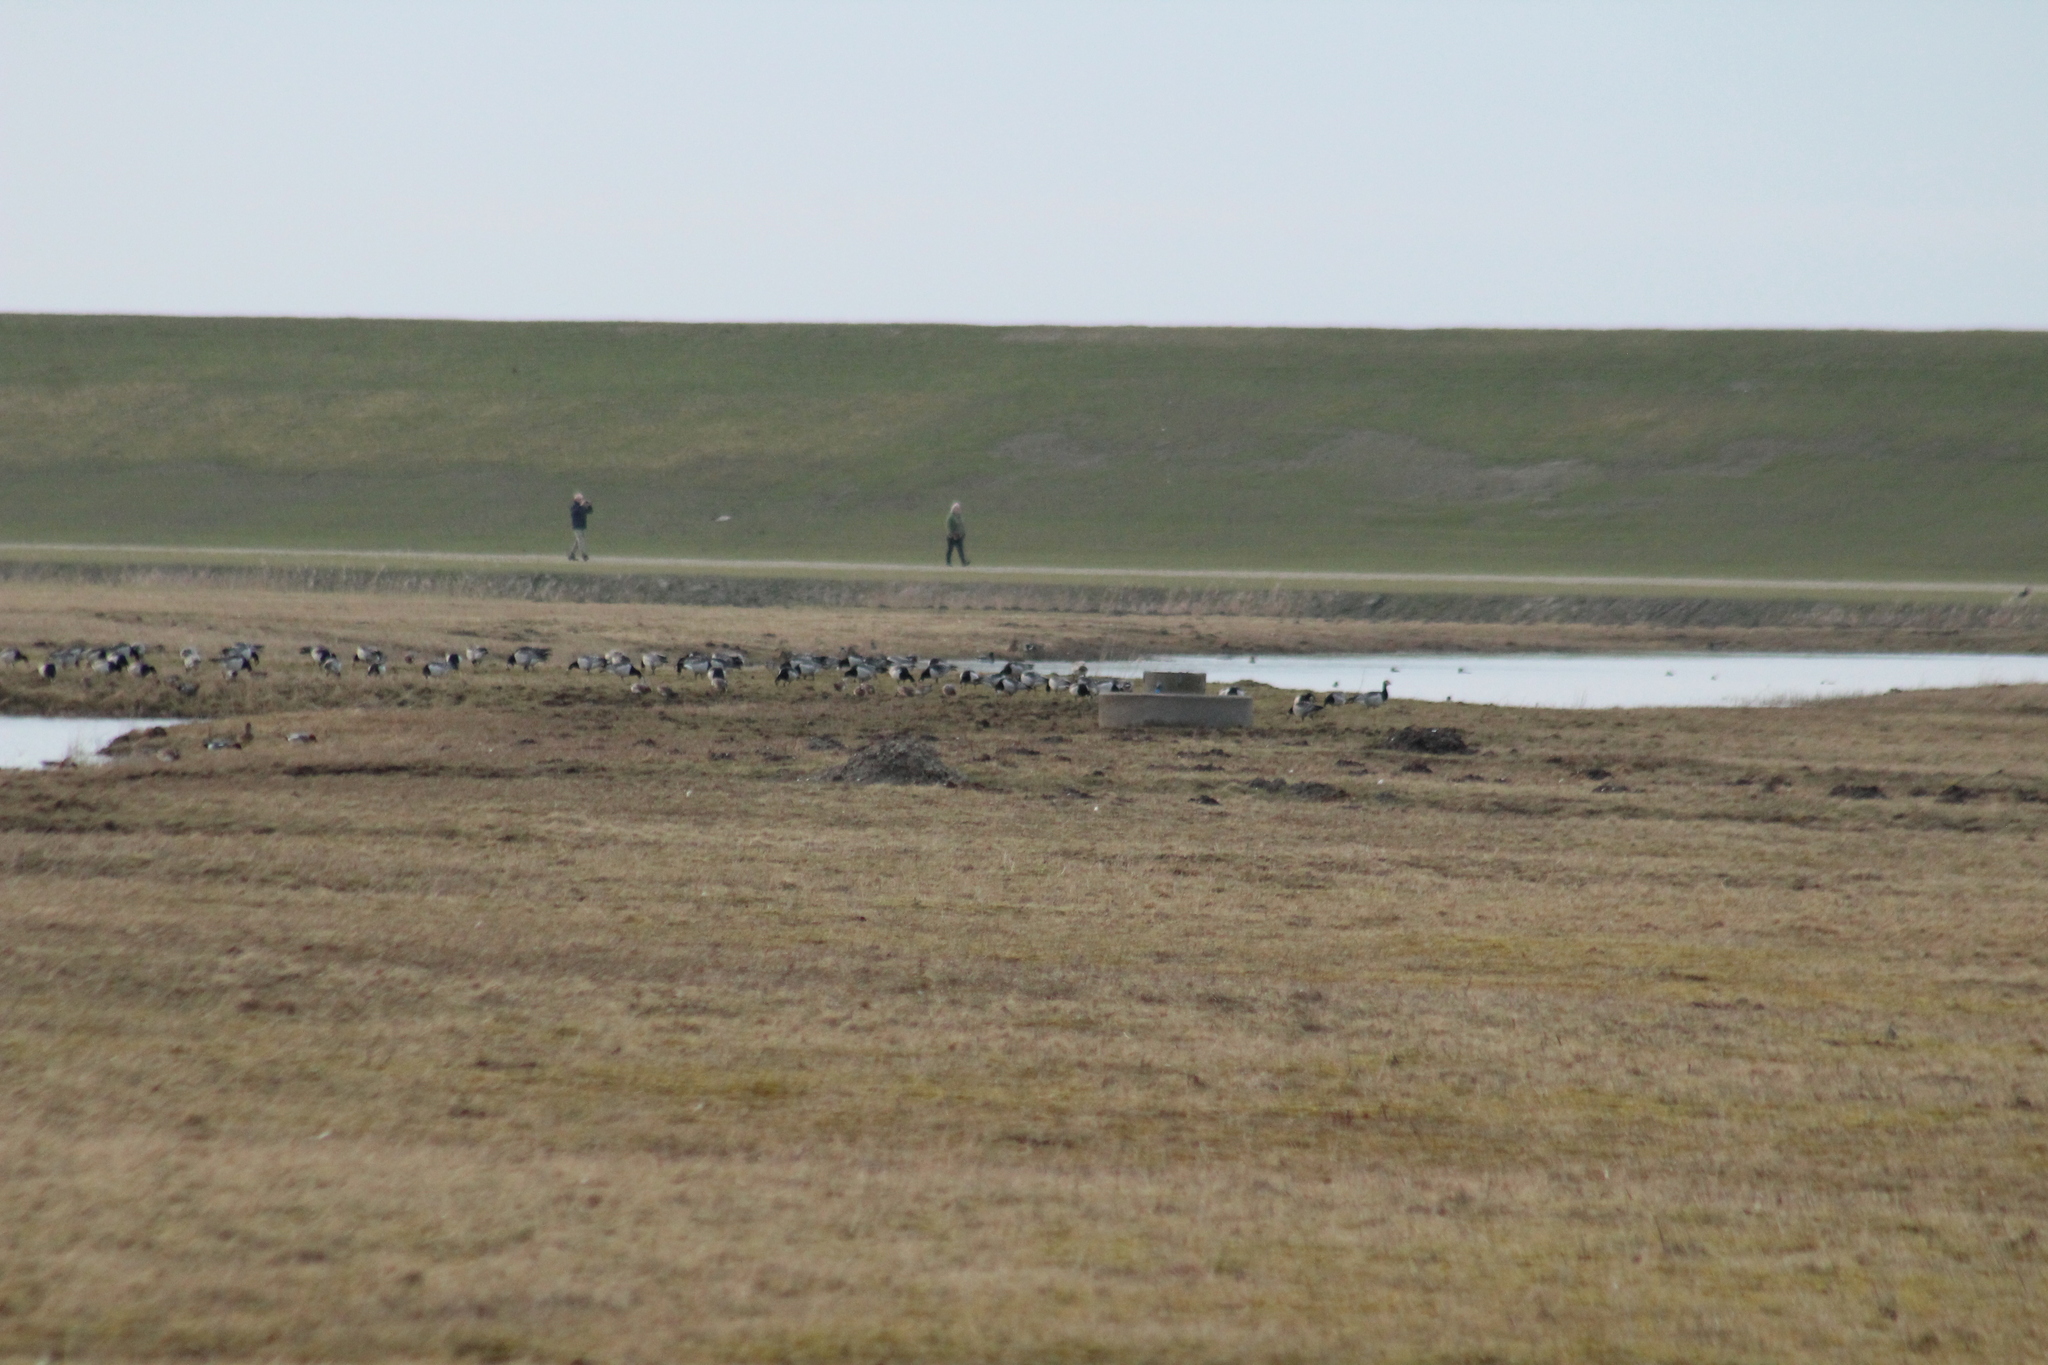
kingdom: Animalia
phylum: Chordata
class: Aves
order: Anseriformes
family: Anatidae
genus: Branta
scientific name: Branta leucopsis
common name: Barnacle goose
